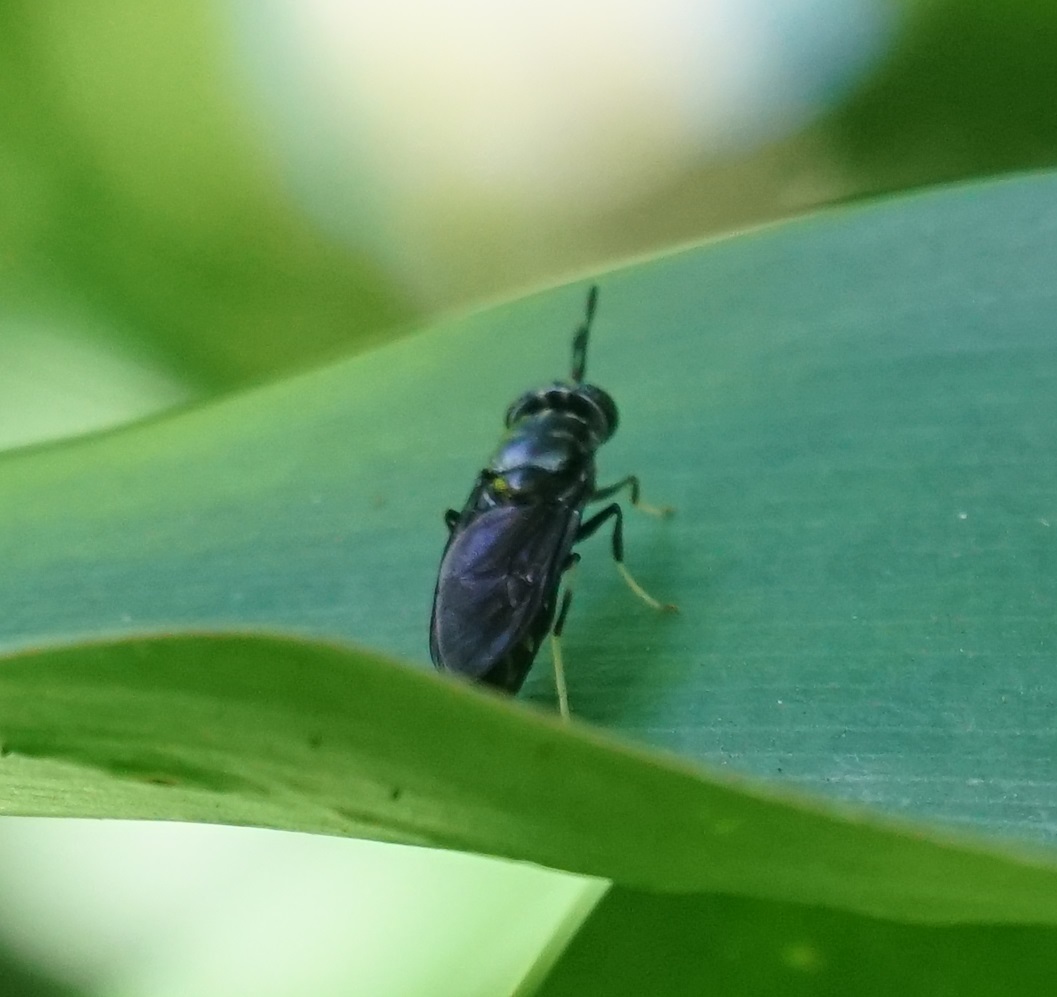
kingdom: Animalia
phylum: Arthropoda
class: Insecta
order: Diptera
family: Stratiomyidae
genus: Hermetia
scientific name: Hermetia illucens
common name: Black soldier fly
